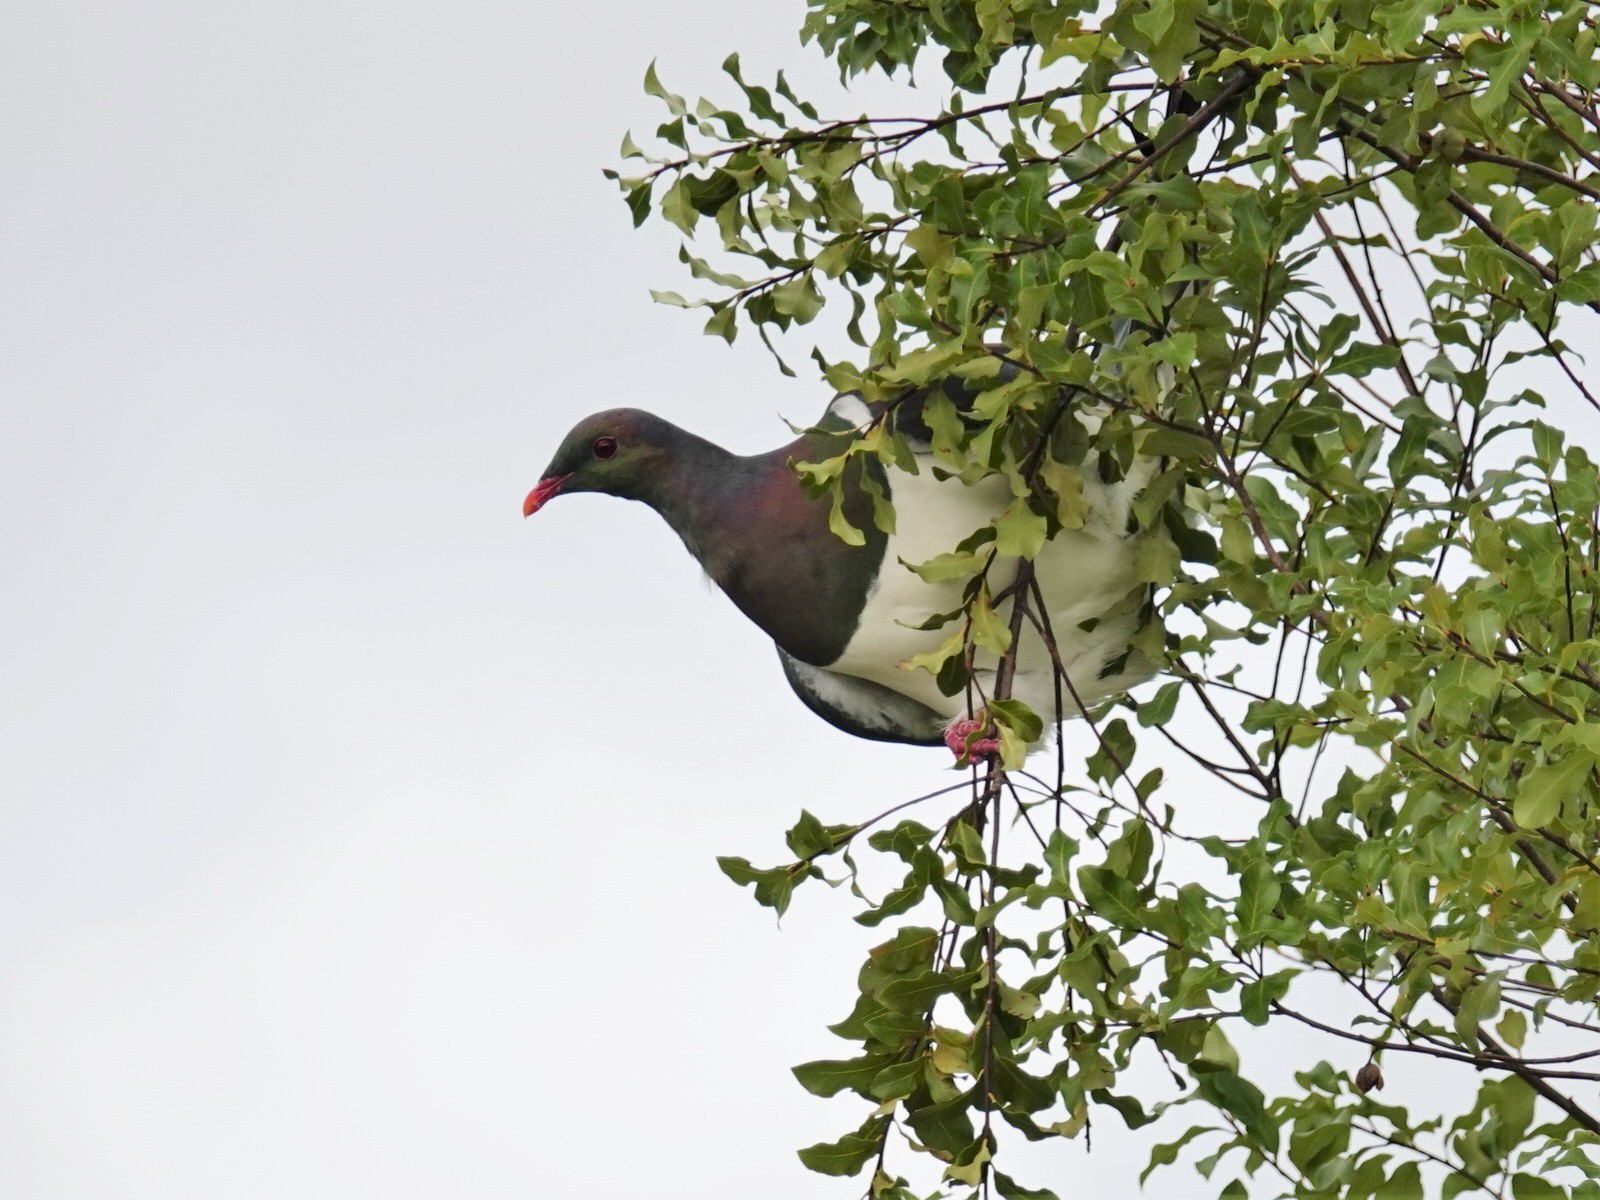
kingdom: Animalia
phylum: Chordata
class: Aves
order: Columbiformes
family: Columbidae
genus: Hemiphaga
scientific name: Hemiphaga novaeseelandiae
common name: New zealand pigeon
